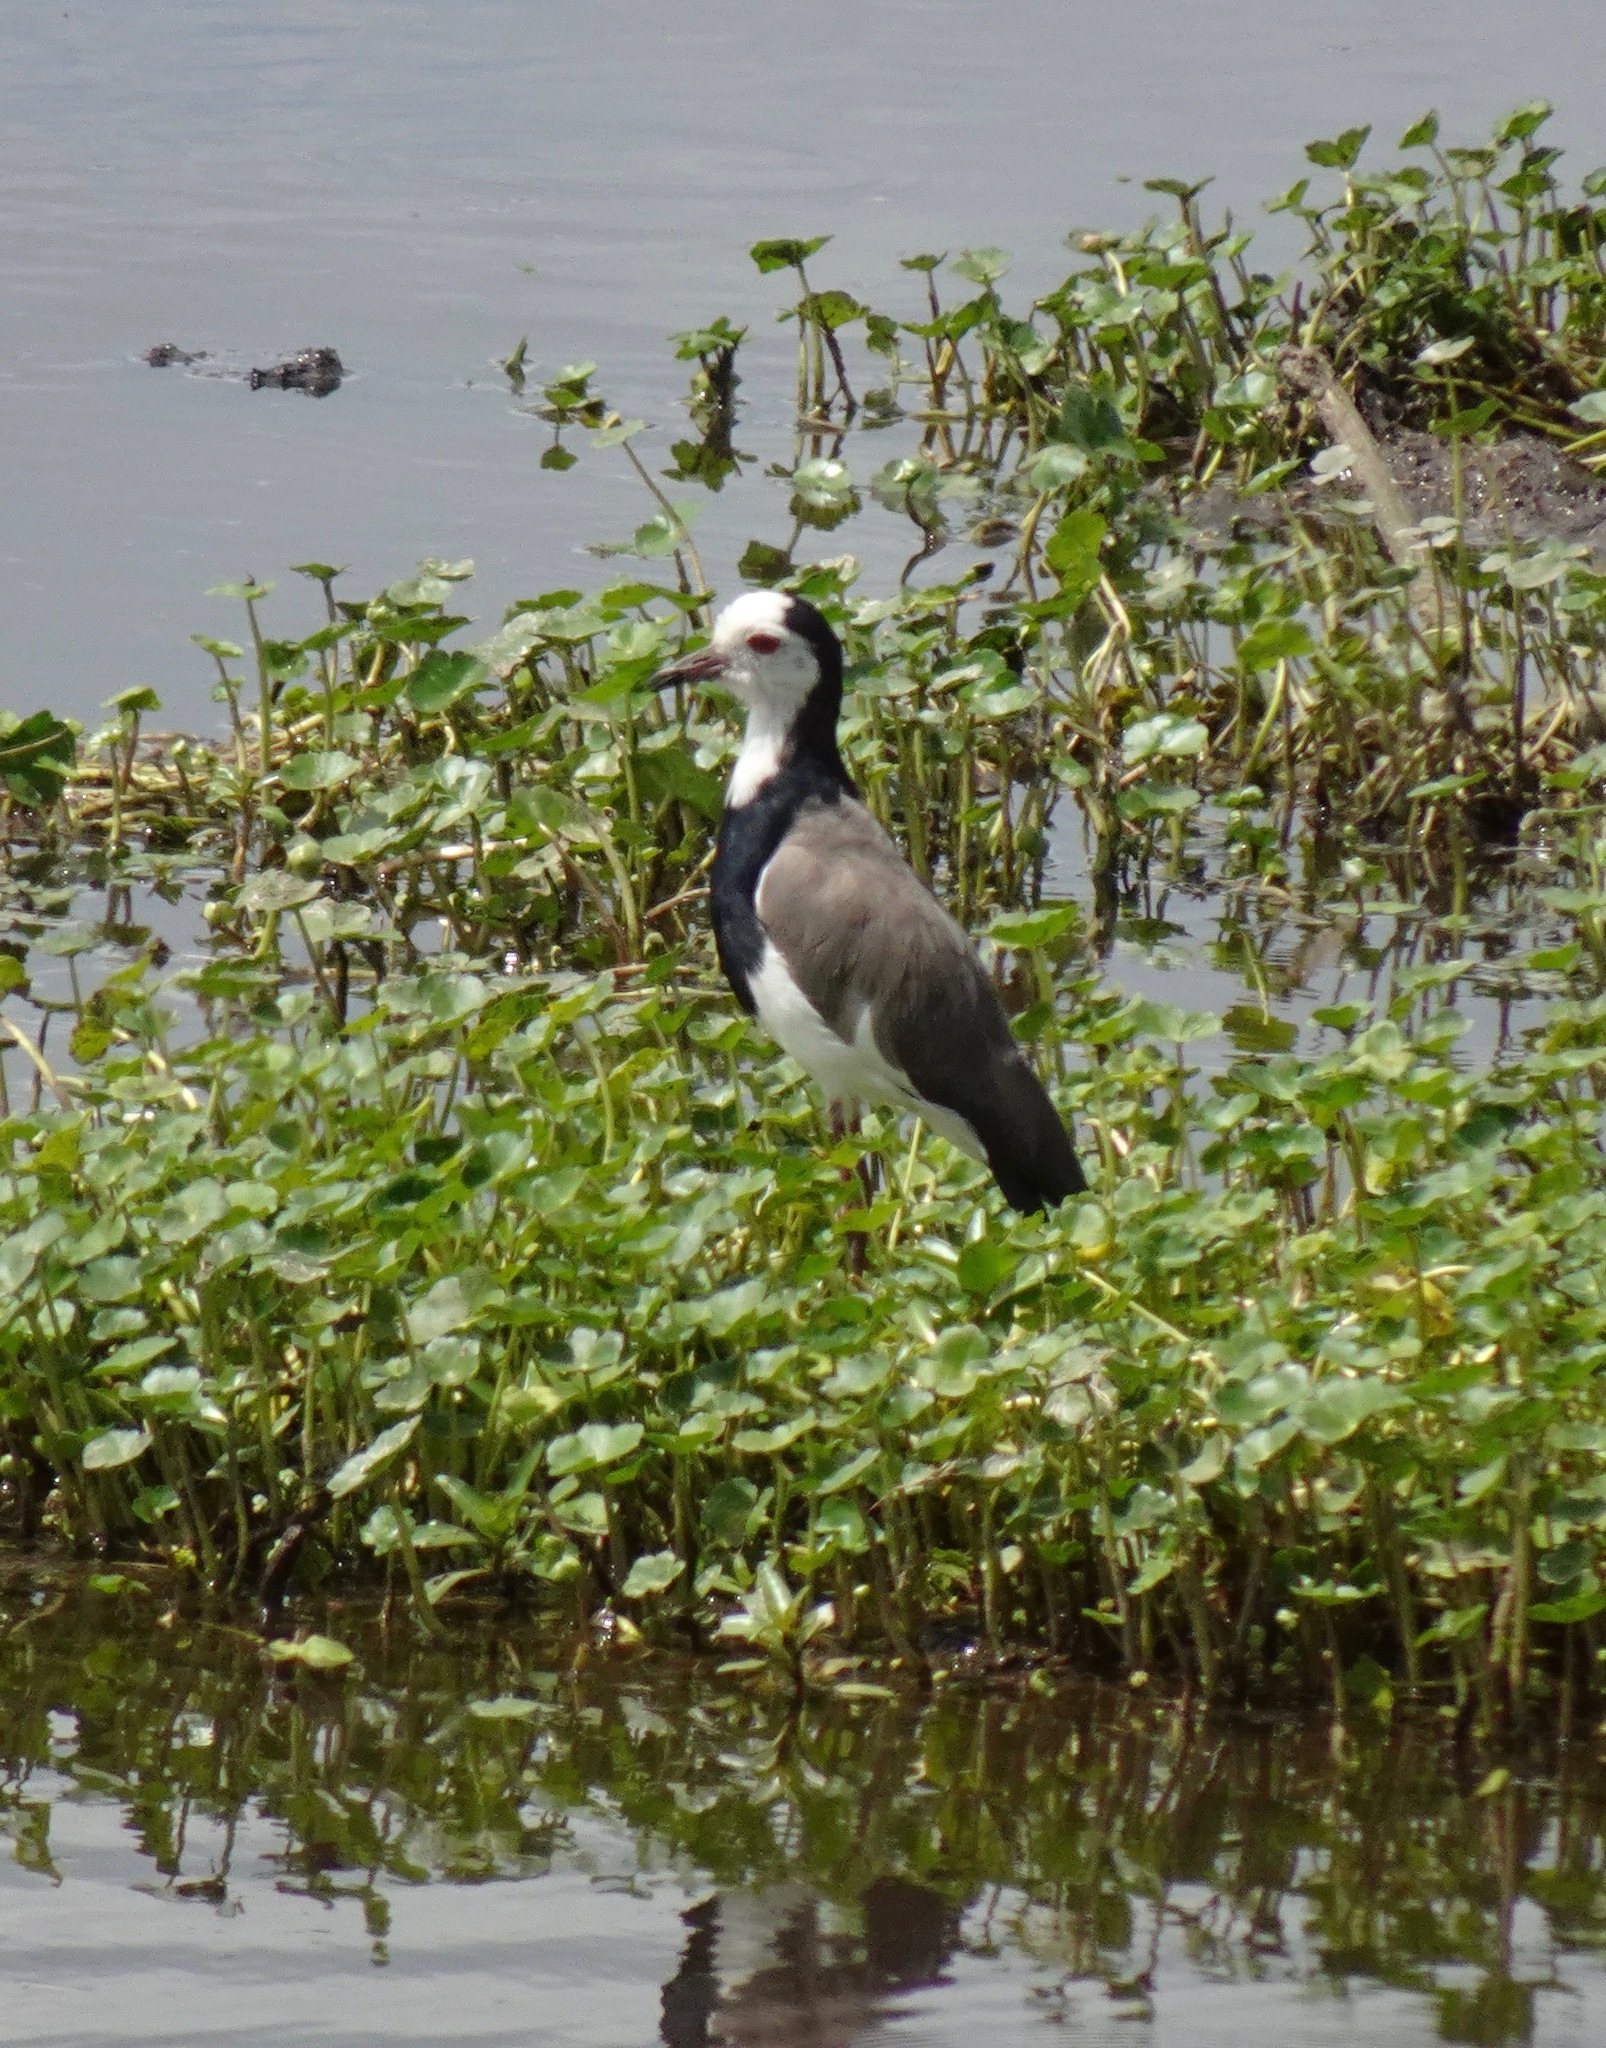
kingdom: Animalia
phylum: Chordata
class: Aves
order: Charadriiformes
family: Charadriidae
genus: Vanellus
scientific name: Vanellus crassirostris
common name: Long-toed lapwing
